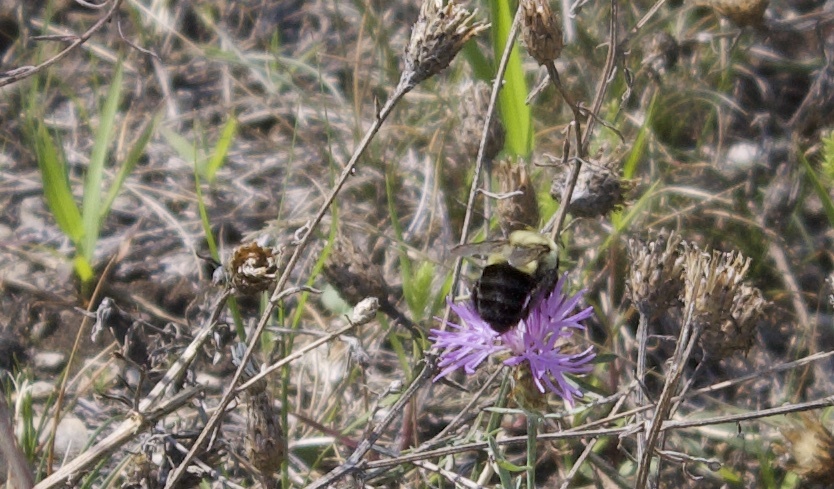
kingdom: Animalia
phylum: Arthropoda
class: Insecta
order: Hymenoptera
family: Apidae
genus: Bombus
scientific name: Bombus impatiens
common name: Common eastern bumble bee
